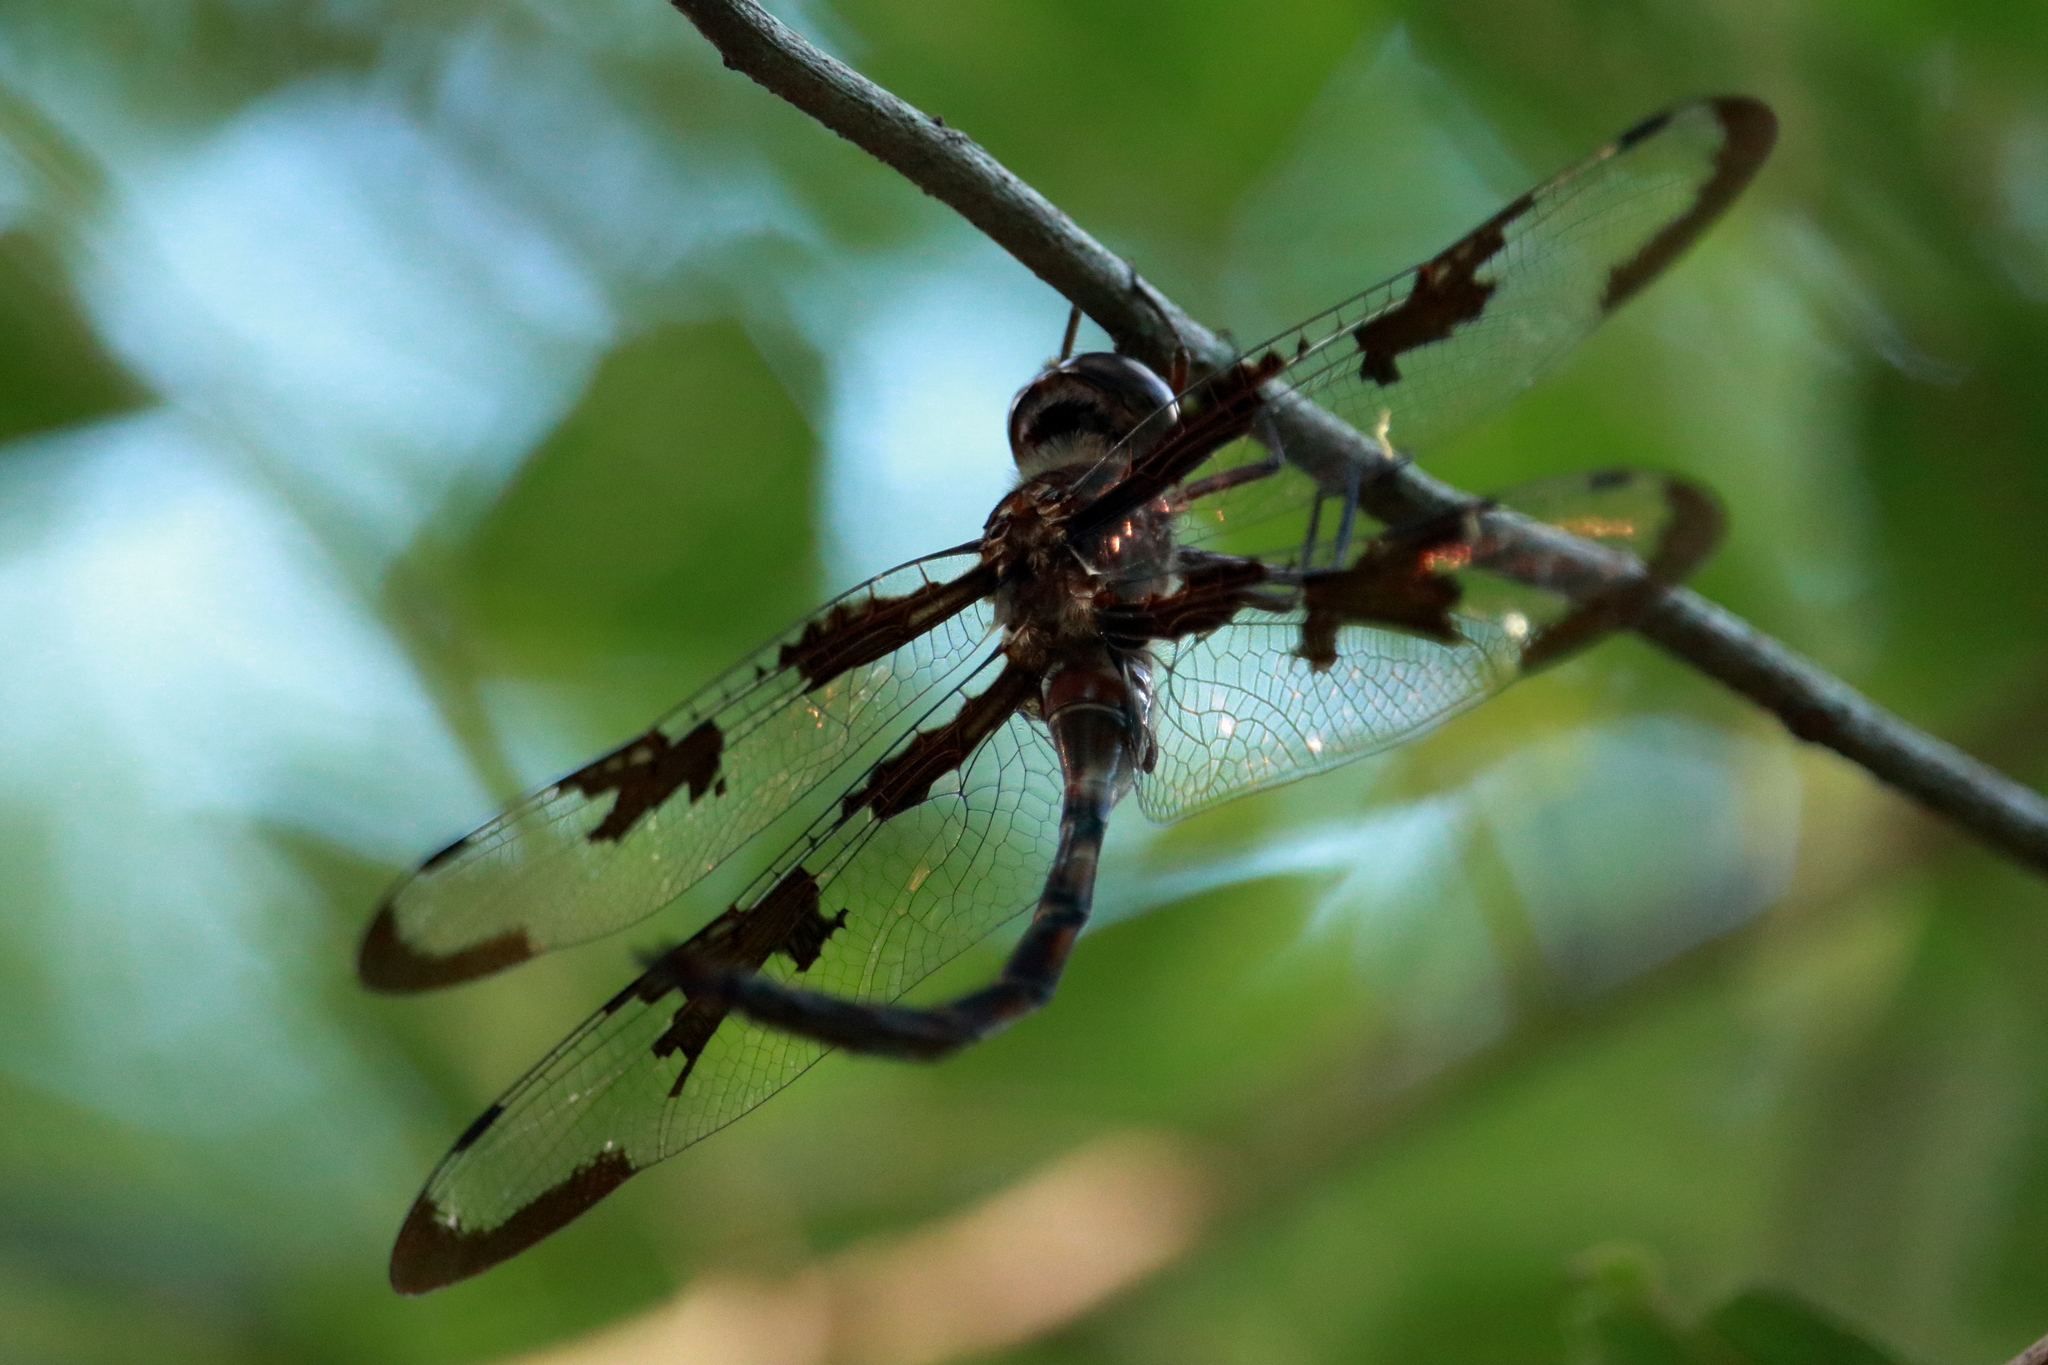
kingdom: Animalia
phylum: Arthropoda
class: Insecta
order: Odonata
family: Corduliidae
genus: Epitheca
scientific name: Epitheca princeps
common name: Prince baskettail
